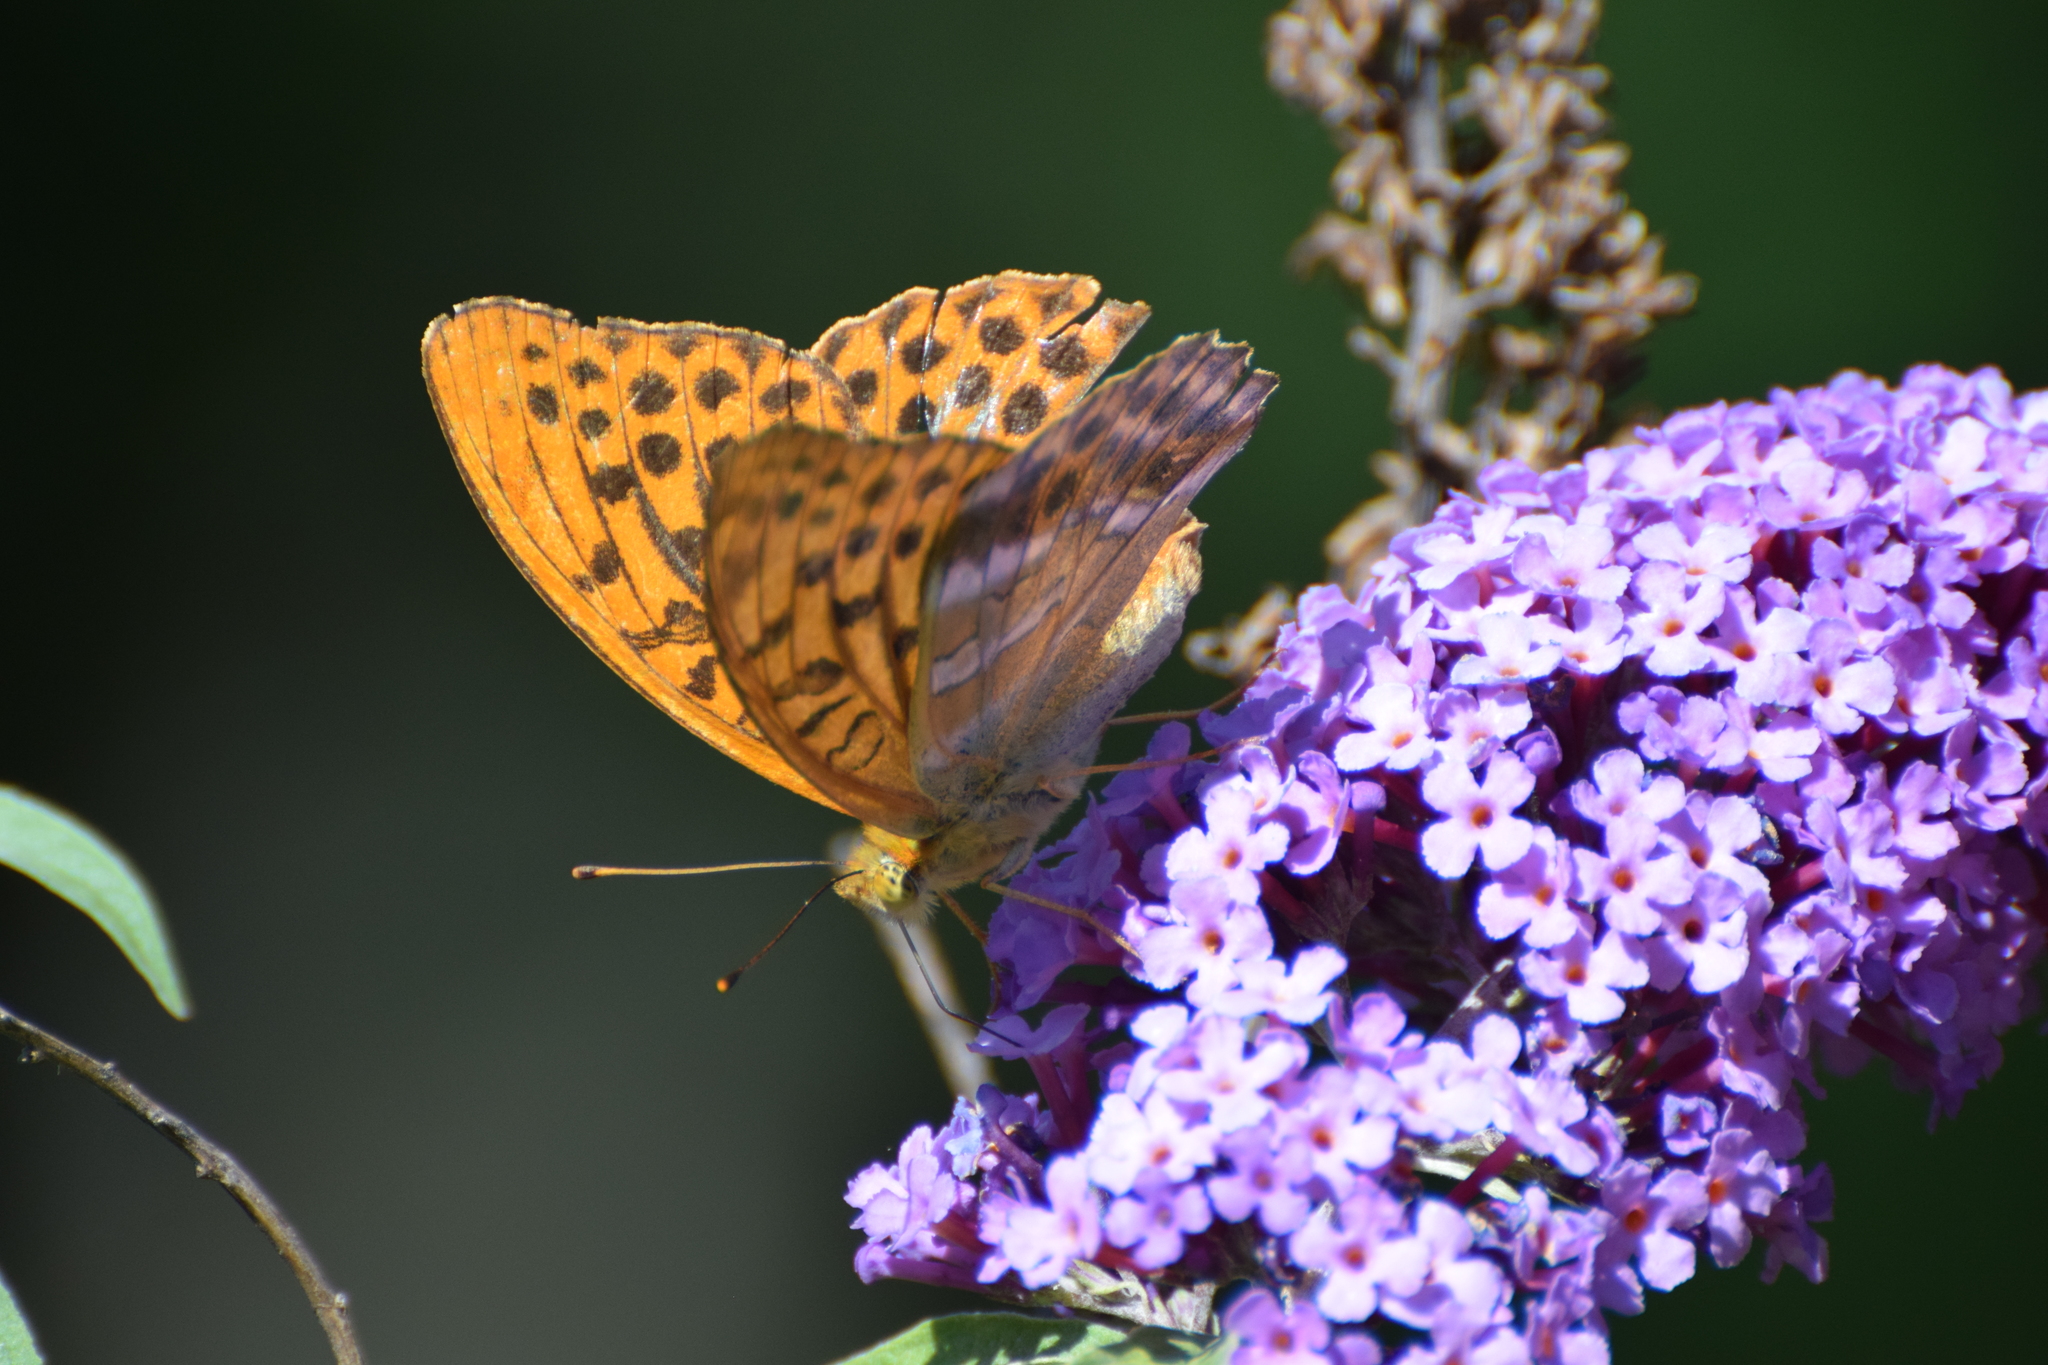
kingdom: Animalia
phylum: Arthropoda
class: Insecta
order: Lepidoptera
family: Nymphalidae
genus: Argynnis
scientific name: Argynnis paphia
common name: Silver-washed fritillary
